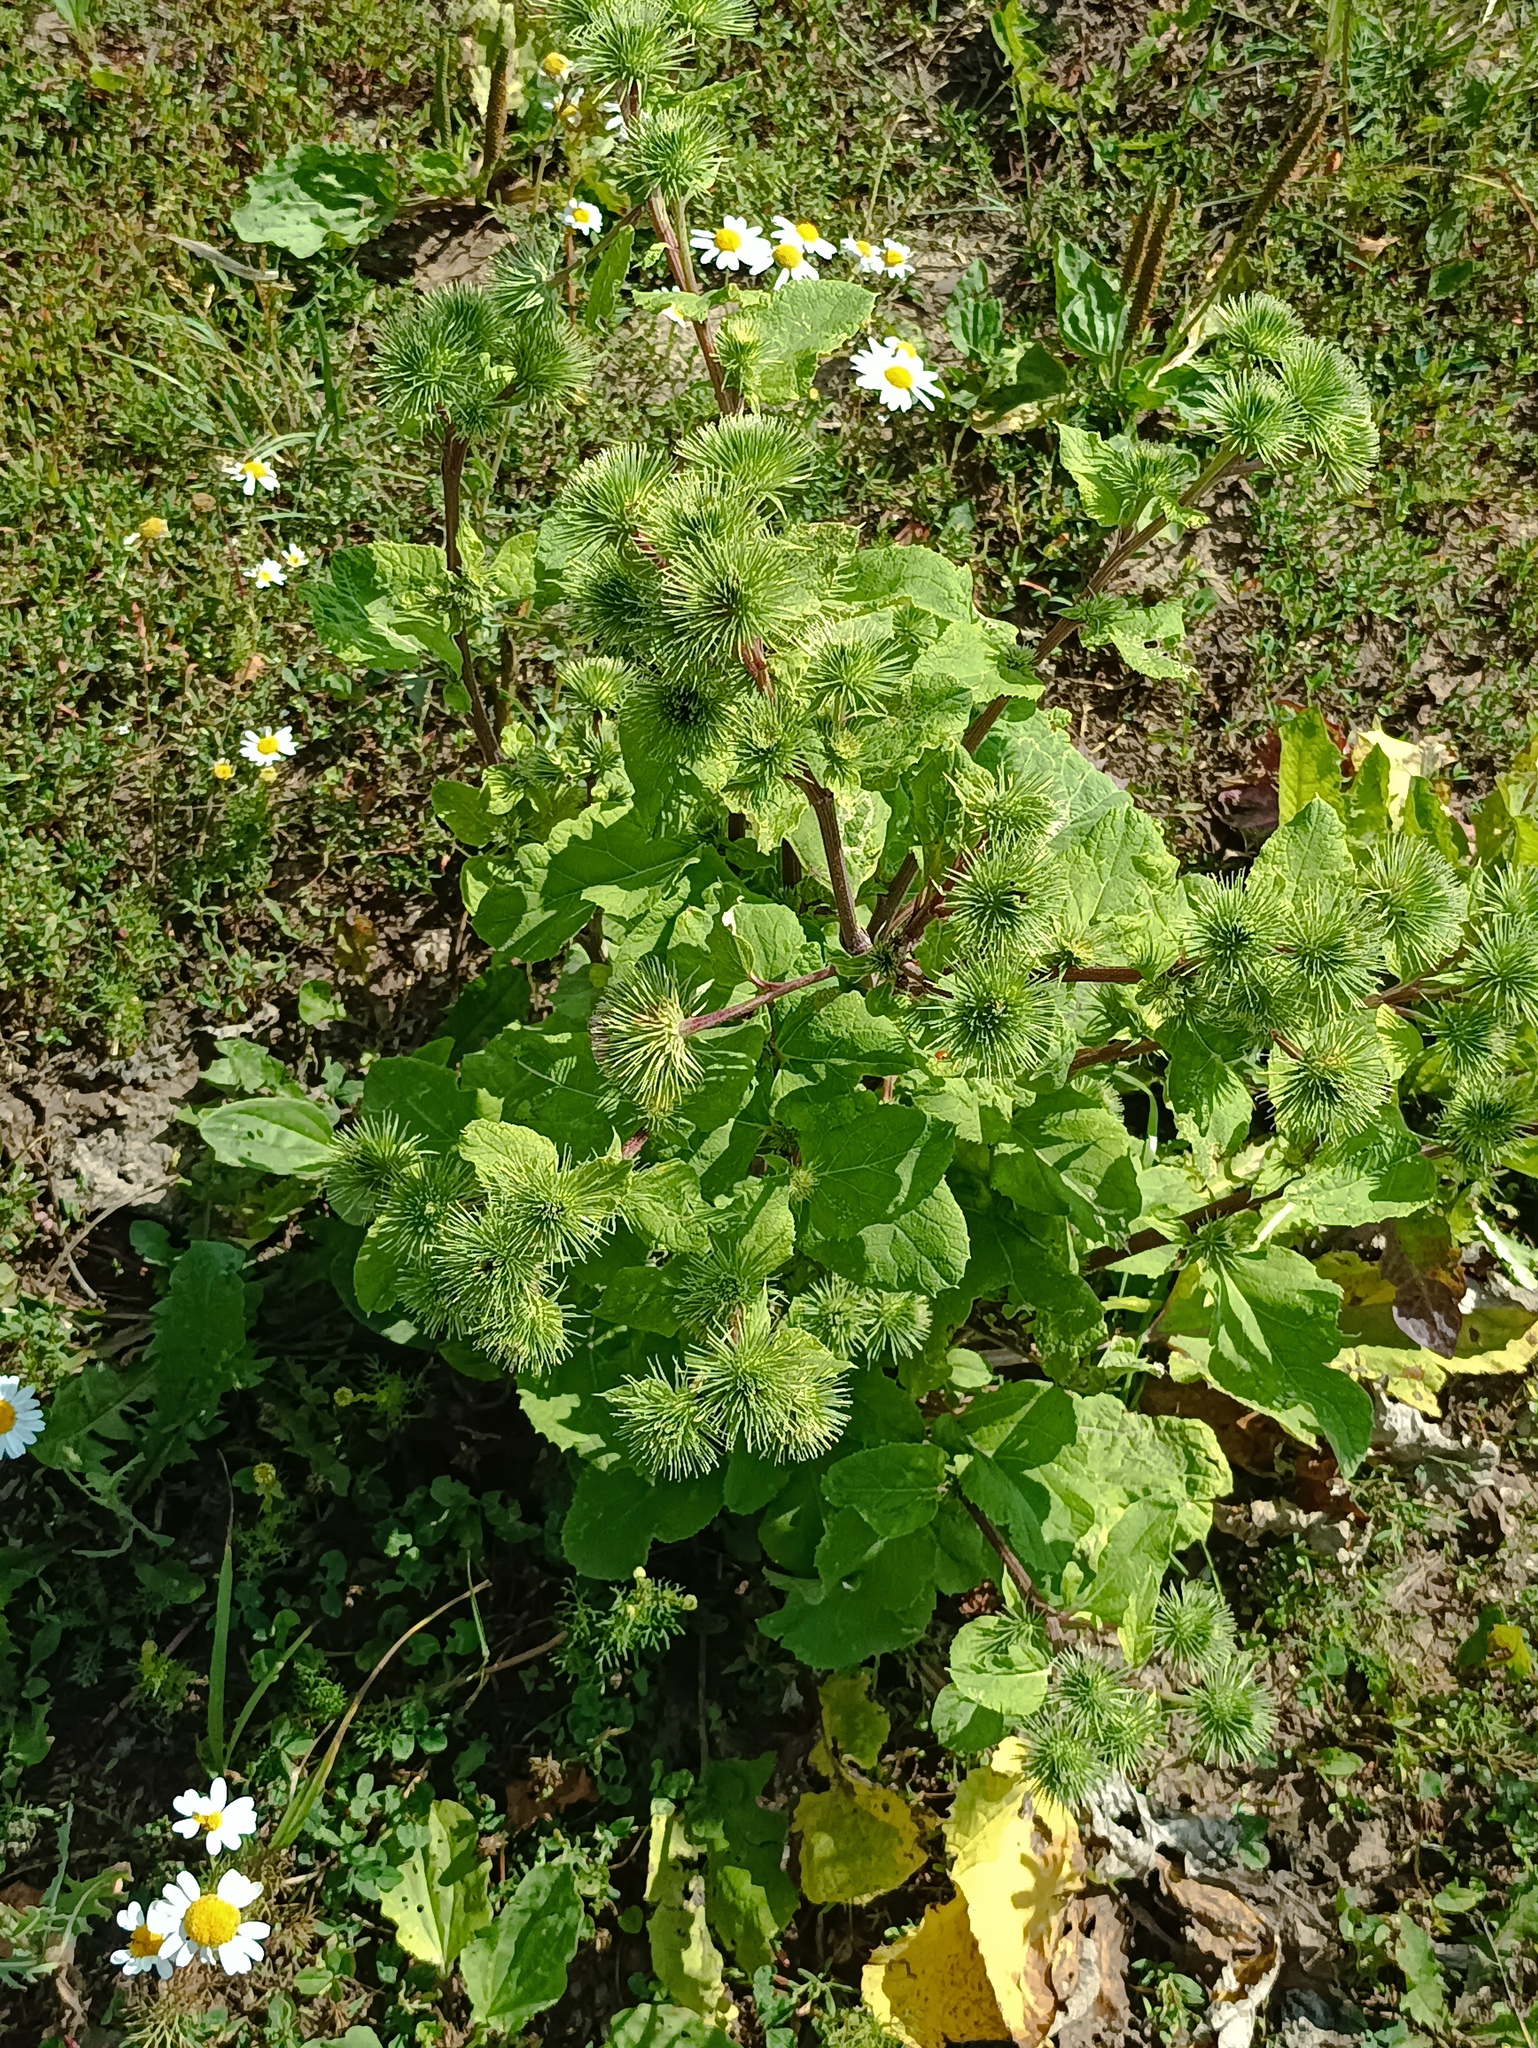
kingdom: Plantae
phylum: Tracheophyta
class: Magnoliopsida
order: Asterales
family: Asteraceae
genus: Arctium
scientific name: Arctium lappa
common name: Greater burdock
